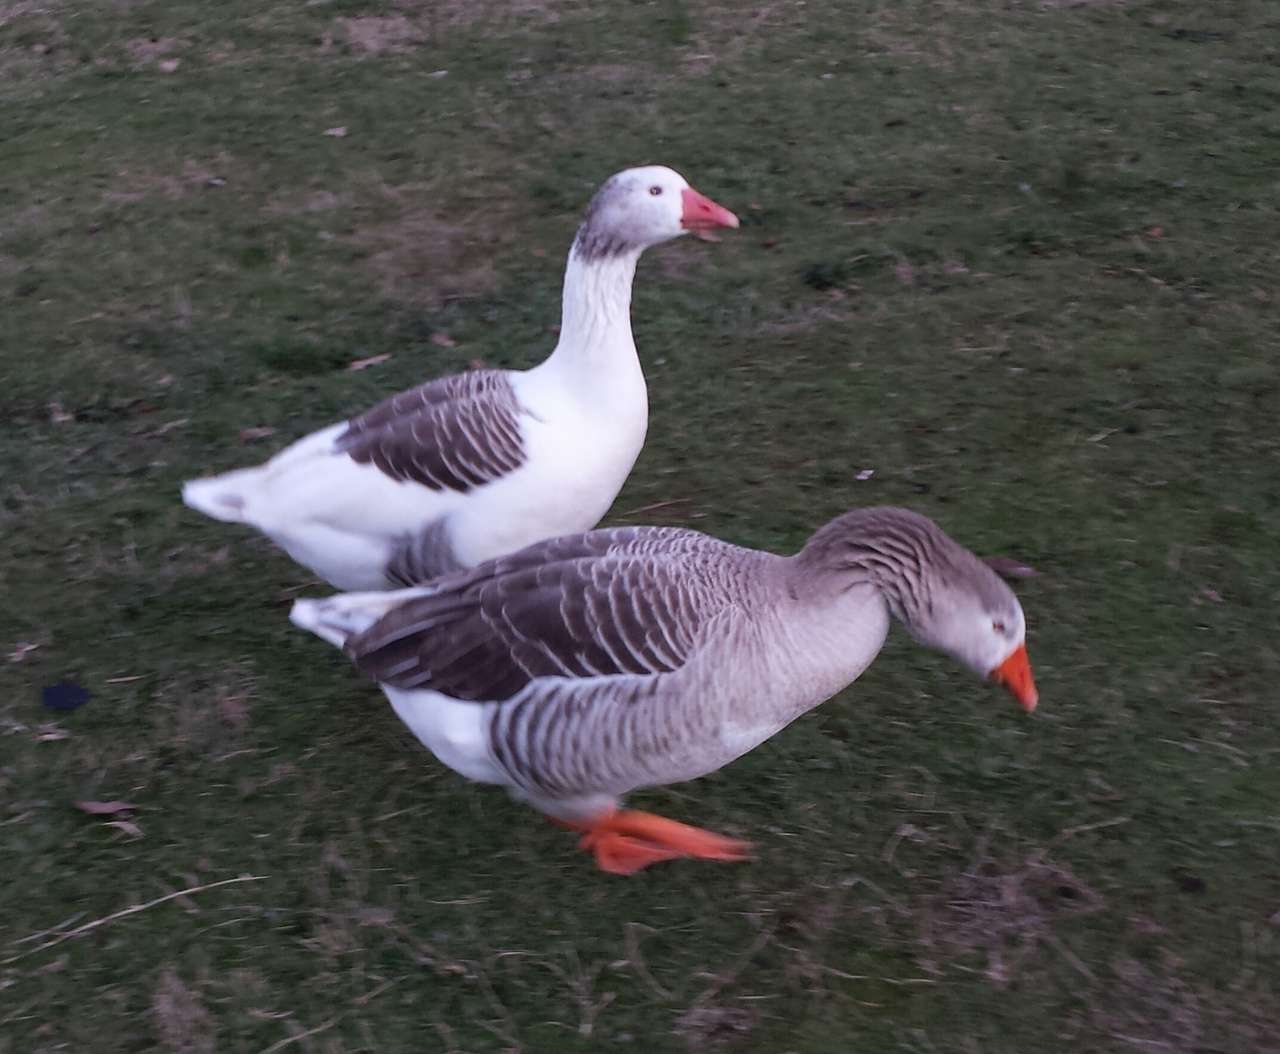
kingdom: Animalia
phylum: Chordata
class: Aves
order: Anseriformes
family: Anatidae
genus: Anser
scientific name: Anser anser
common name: Greylag goose
